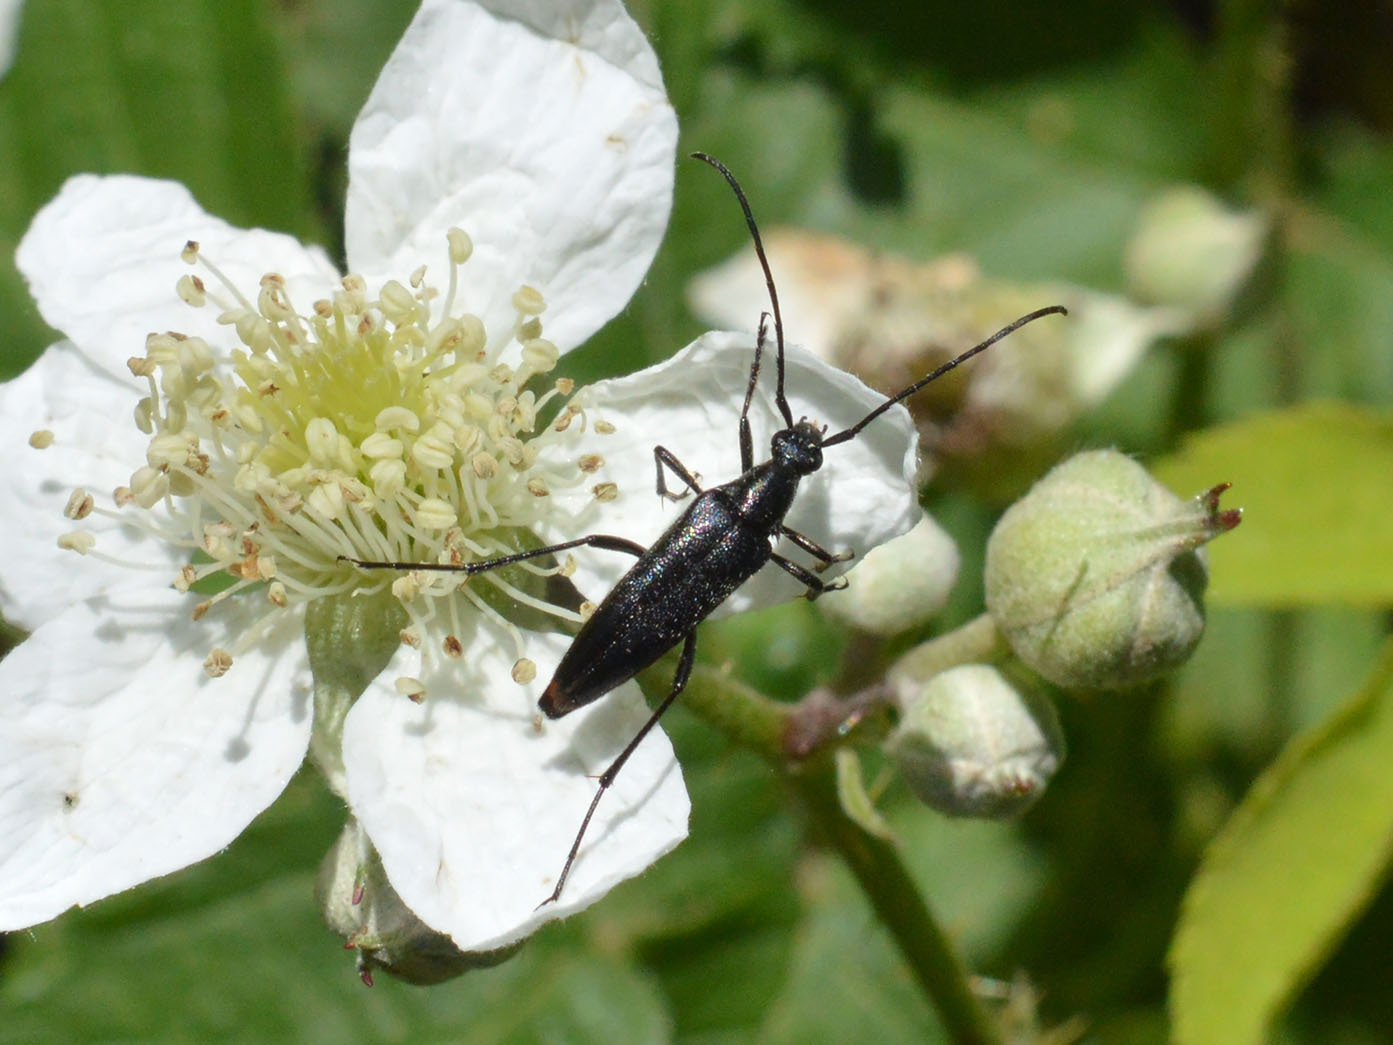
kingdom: Animalia
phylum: Arthropoda
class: Insecta
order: Coleoptera
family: Cerambycidae
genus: Stenurella
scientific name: Stenurella nigra
